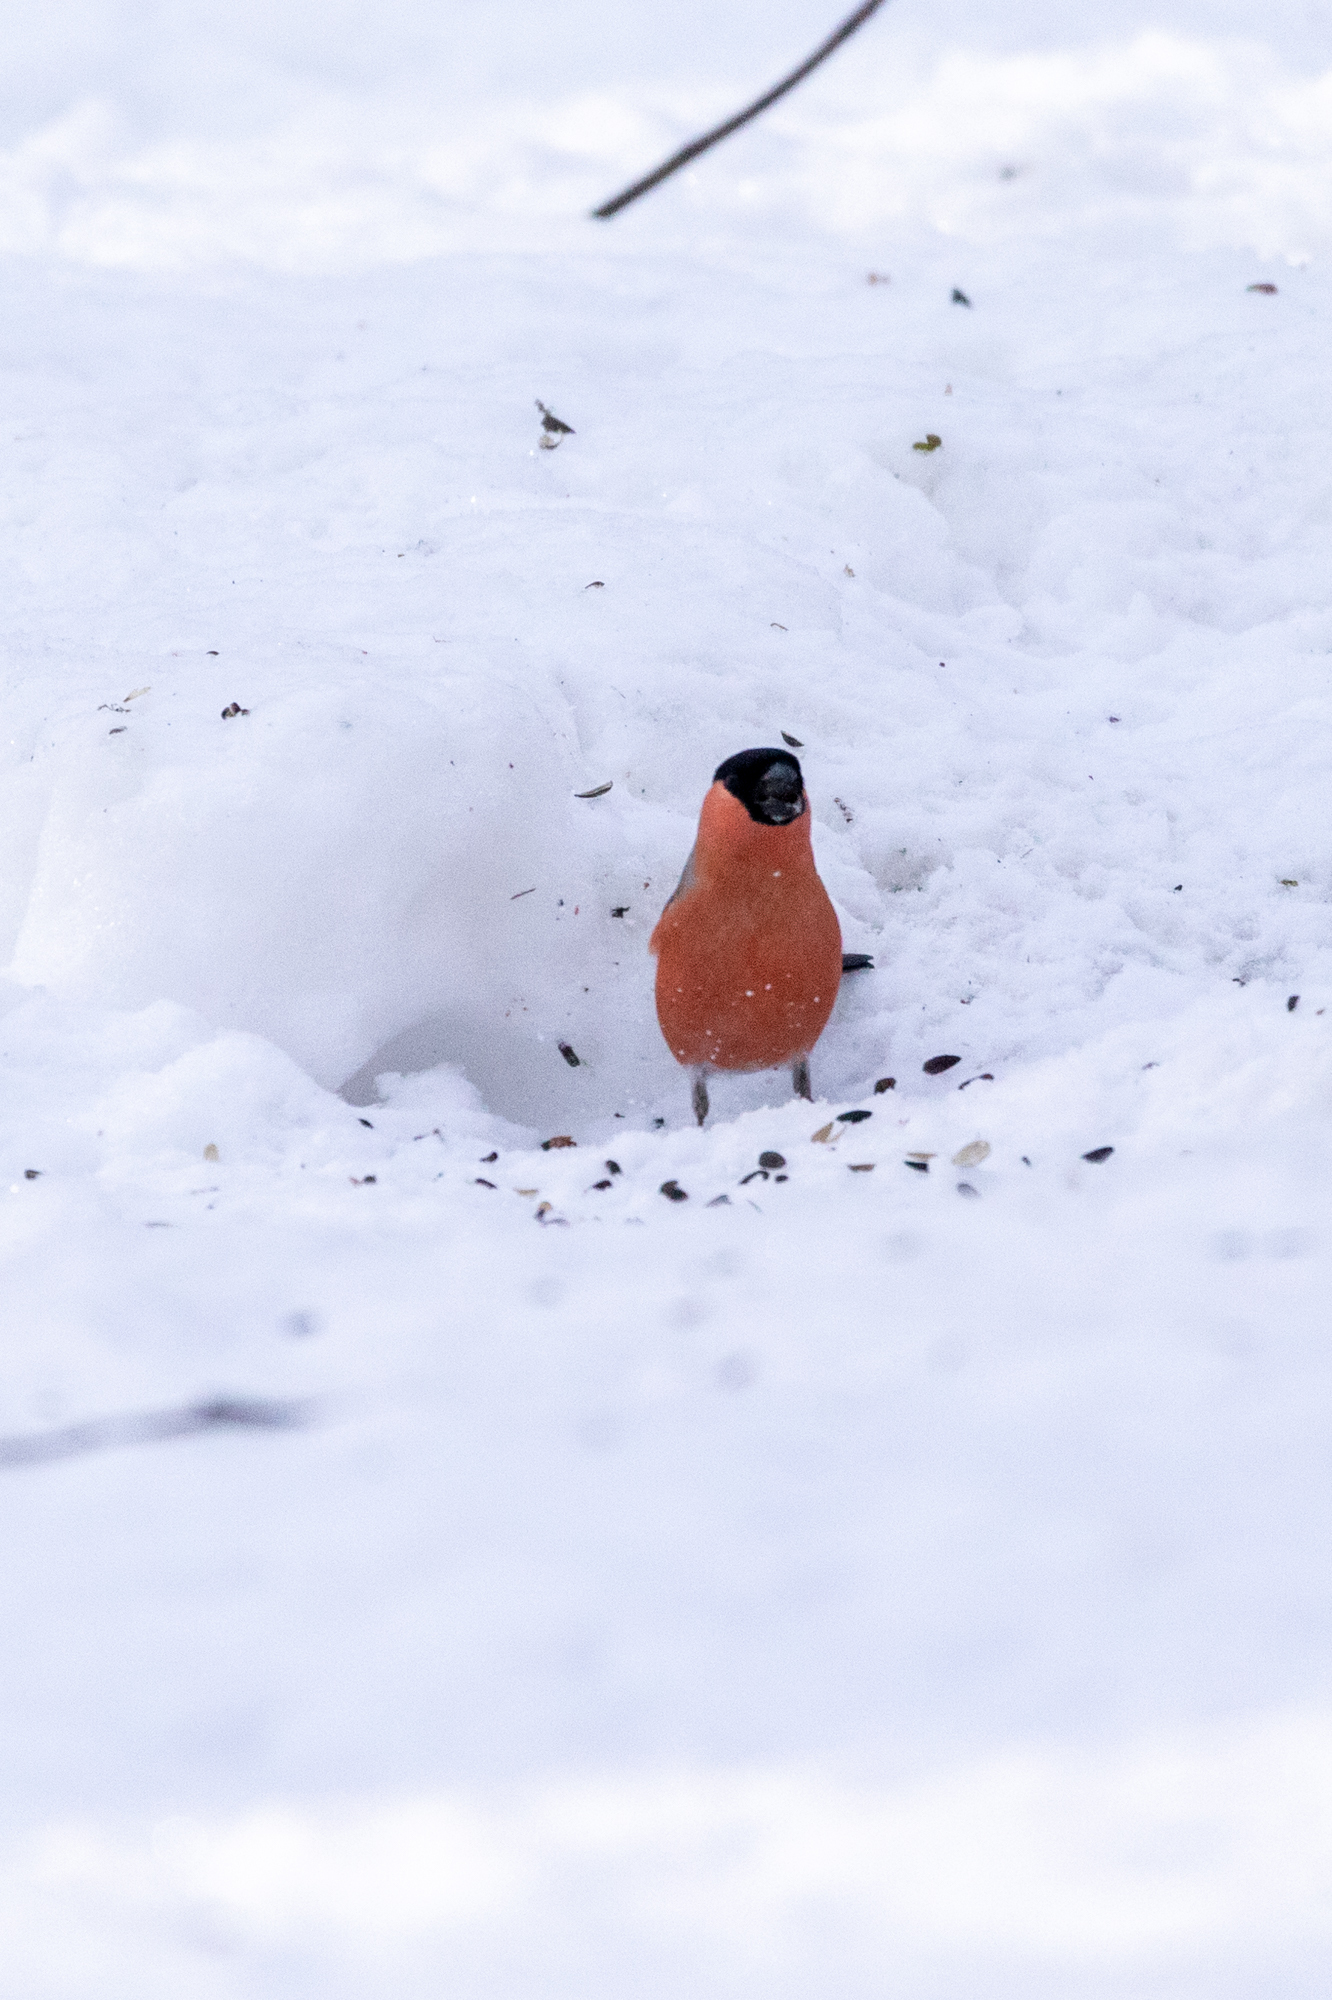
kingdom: Animalia
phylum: Chordata
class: Aves
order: Passeriformes
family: Fringillidae
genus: Pyrrhula
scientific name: Pyrrhula pyrrhula
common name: Eurasian bullfinch
